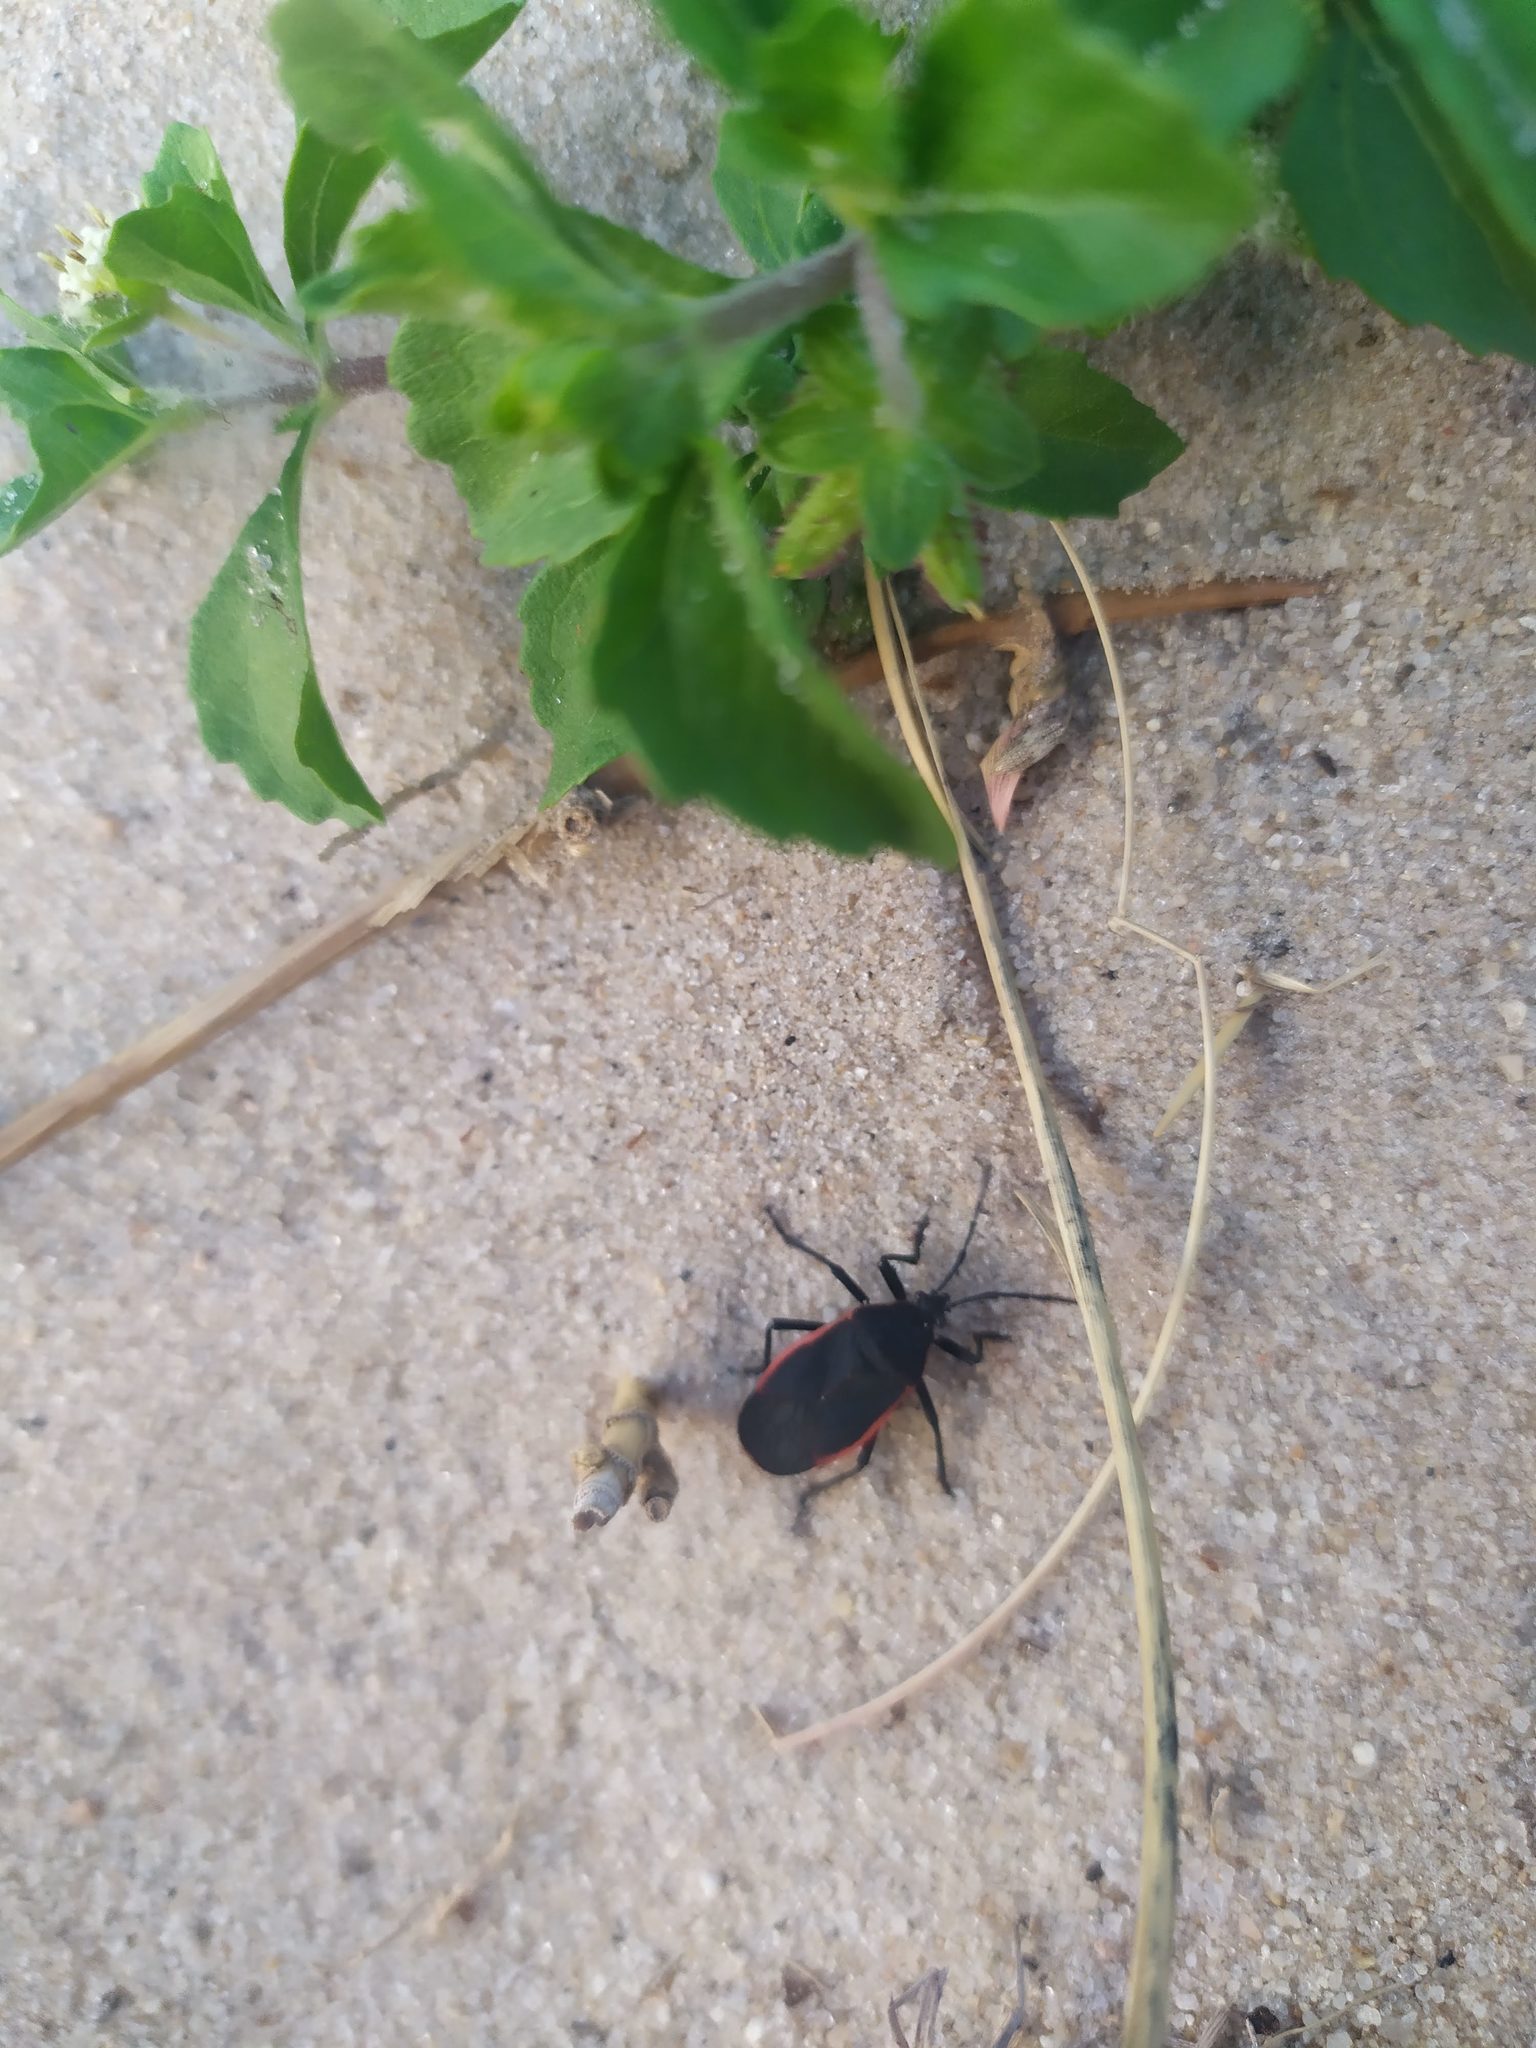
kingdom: Animalia
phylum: Arthropoda
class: Insecta
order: Hemiptera
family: Largidae
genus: Largus
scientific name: Largus rufipennis
